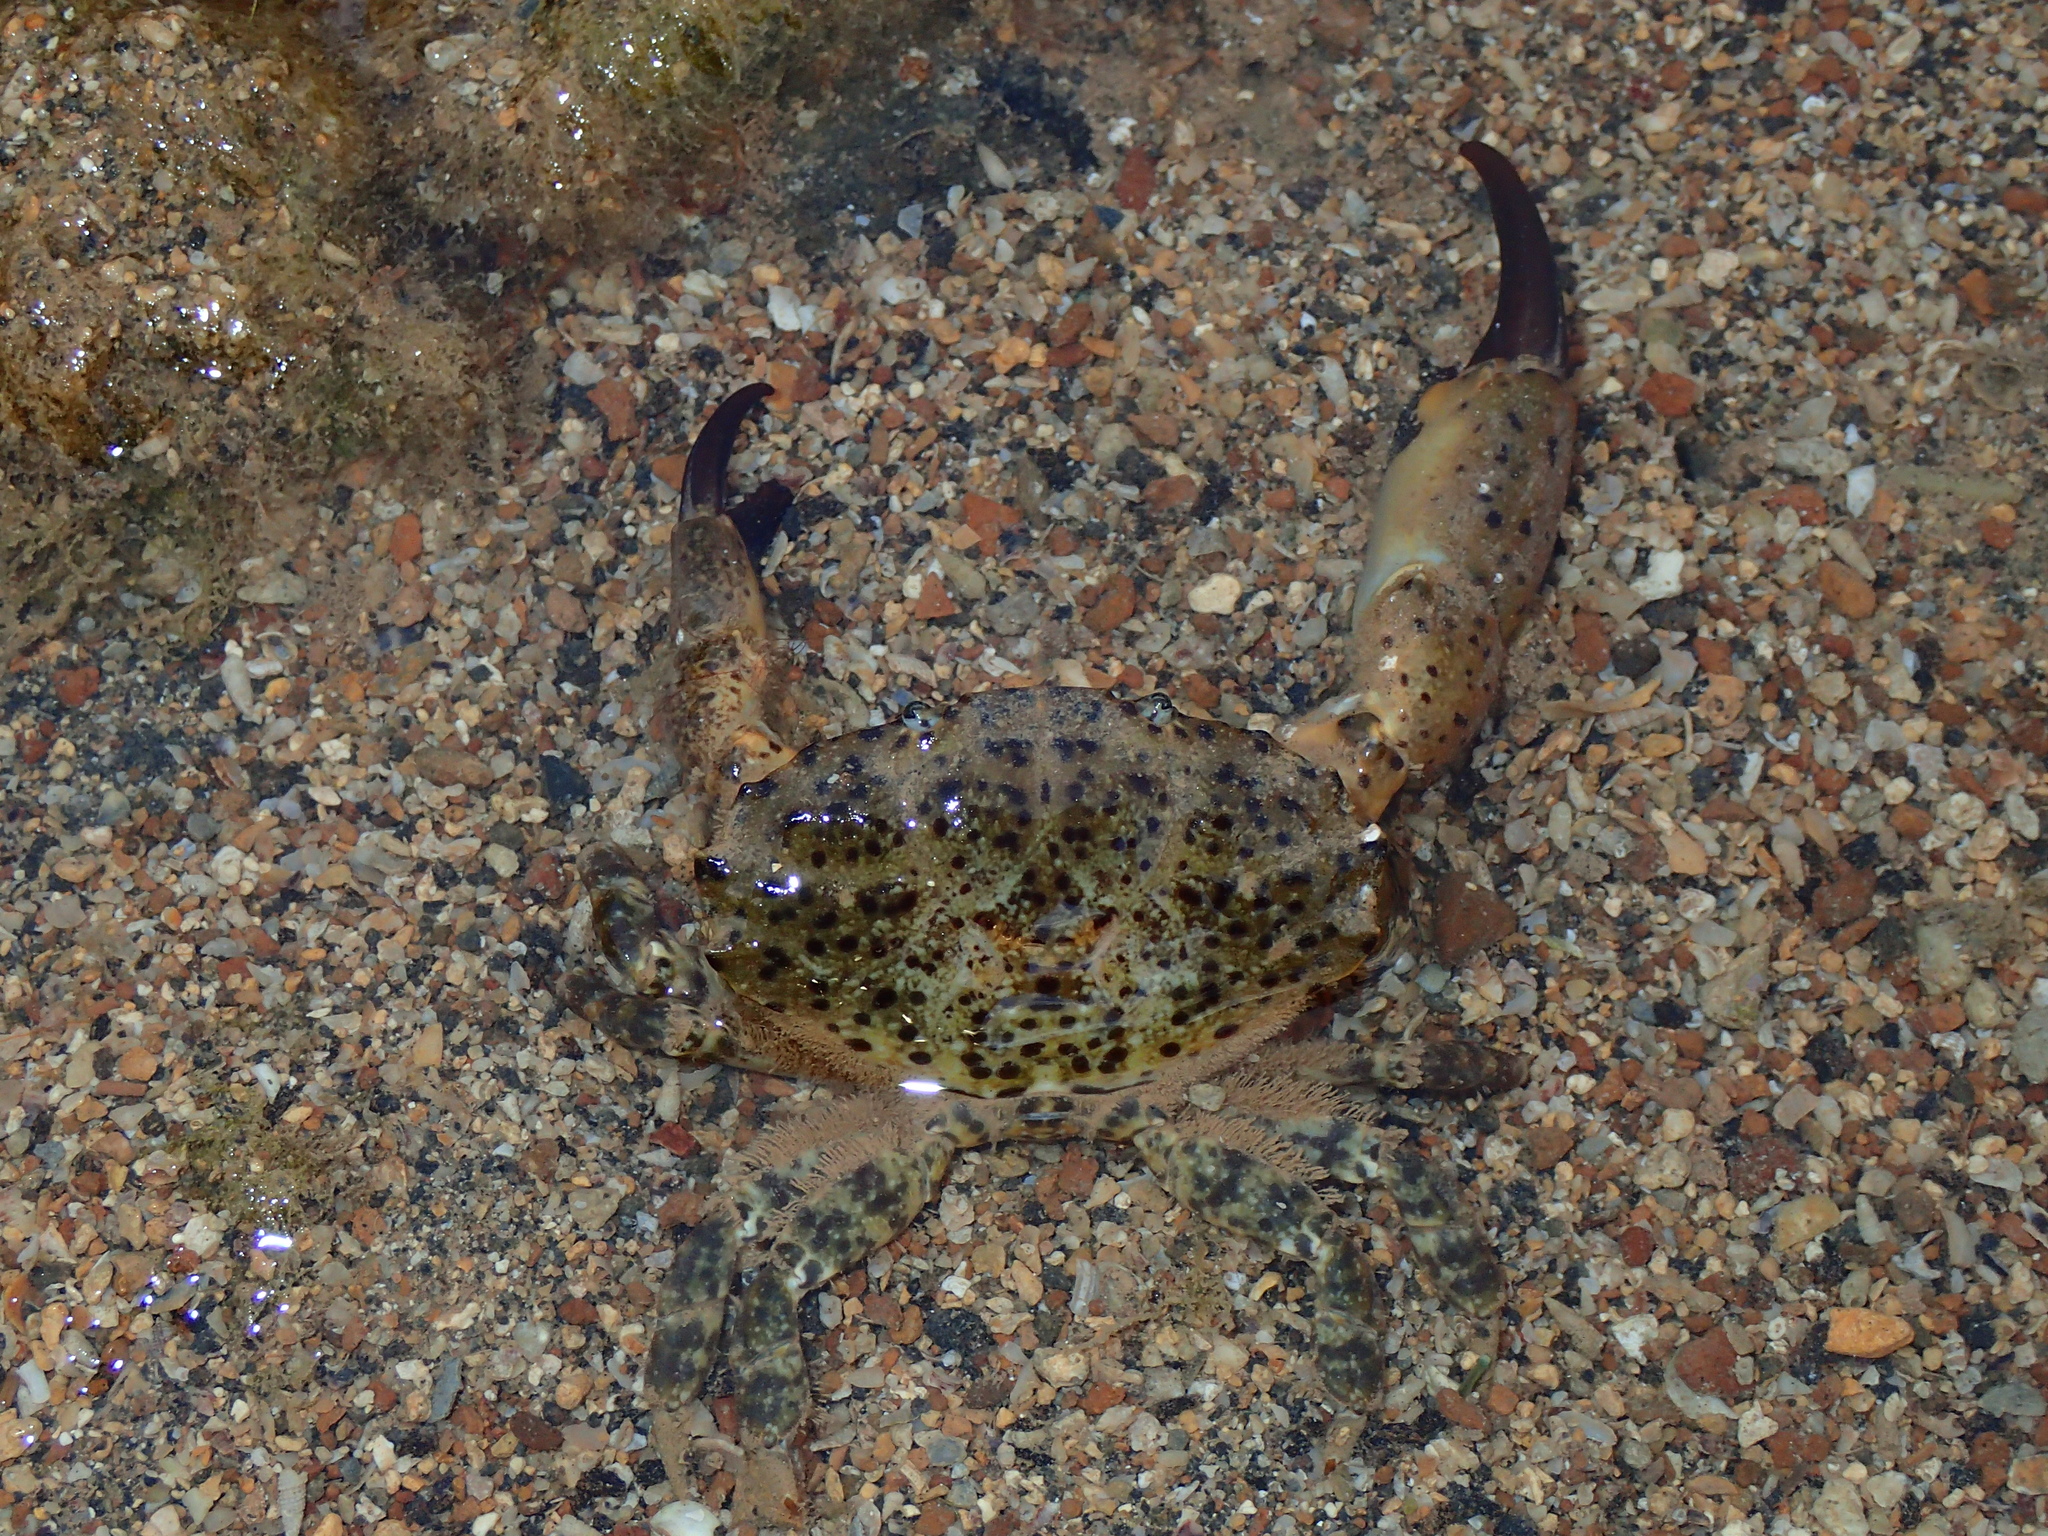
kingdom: Animalia
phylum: Arthropoda
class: Malacostraca
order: Decapoda
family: Xanthidae
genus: Xantho
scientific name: Xantho poressa
